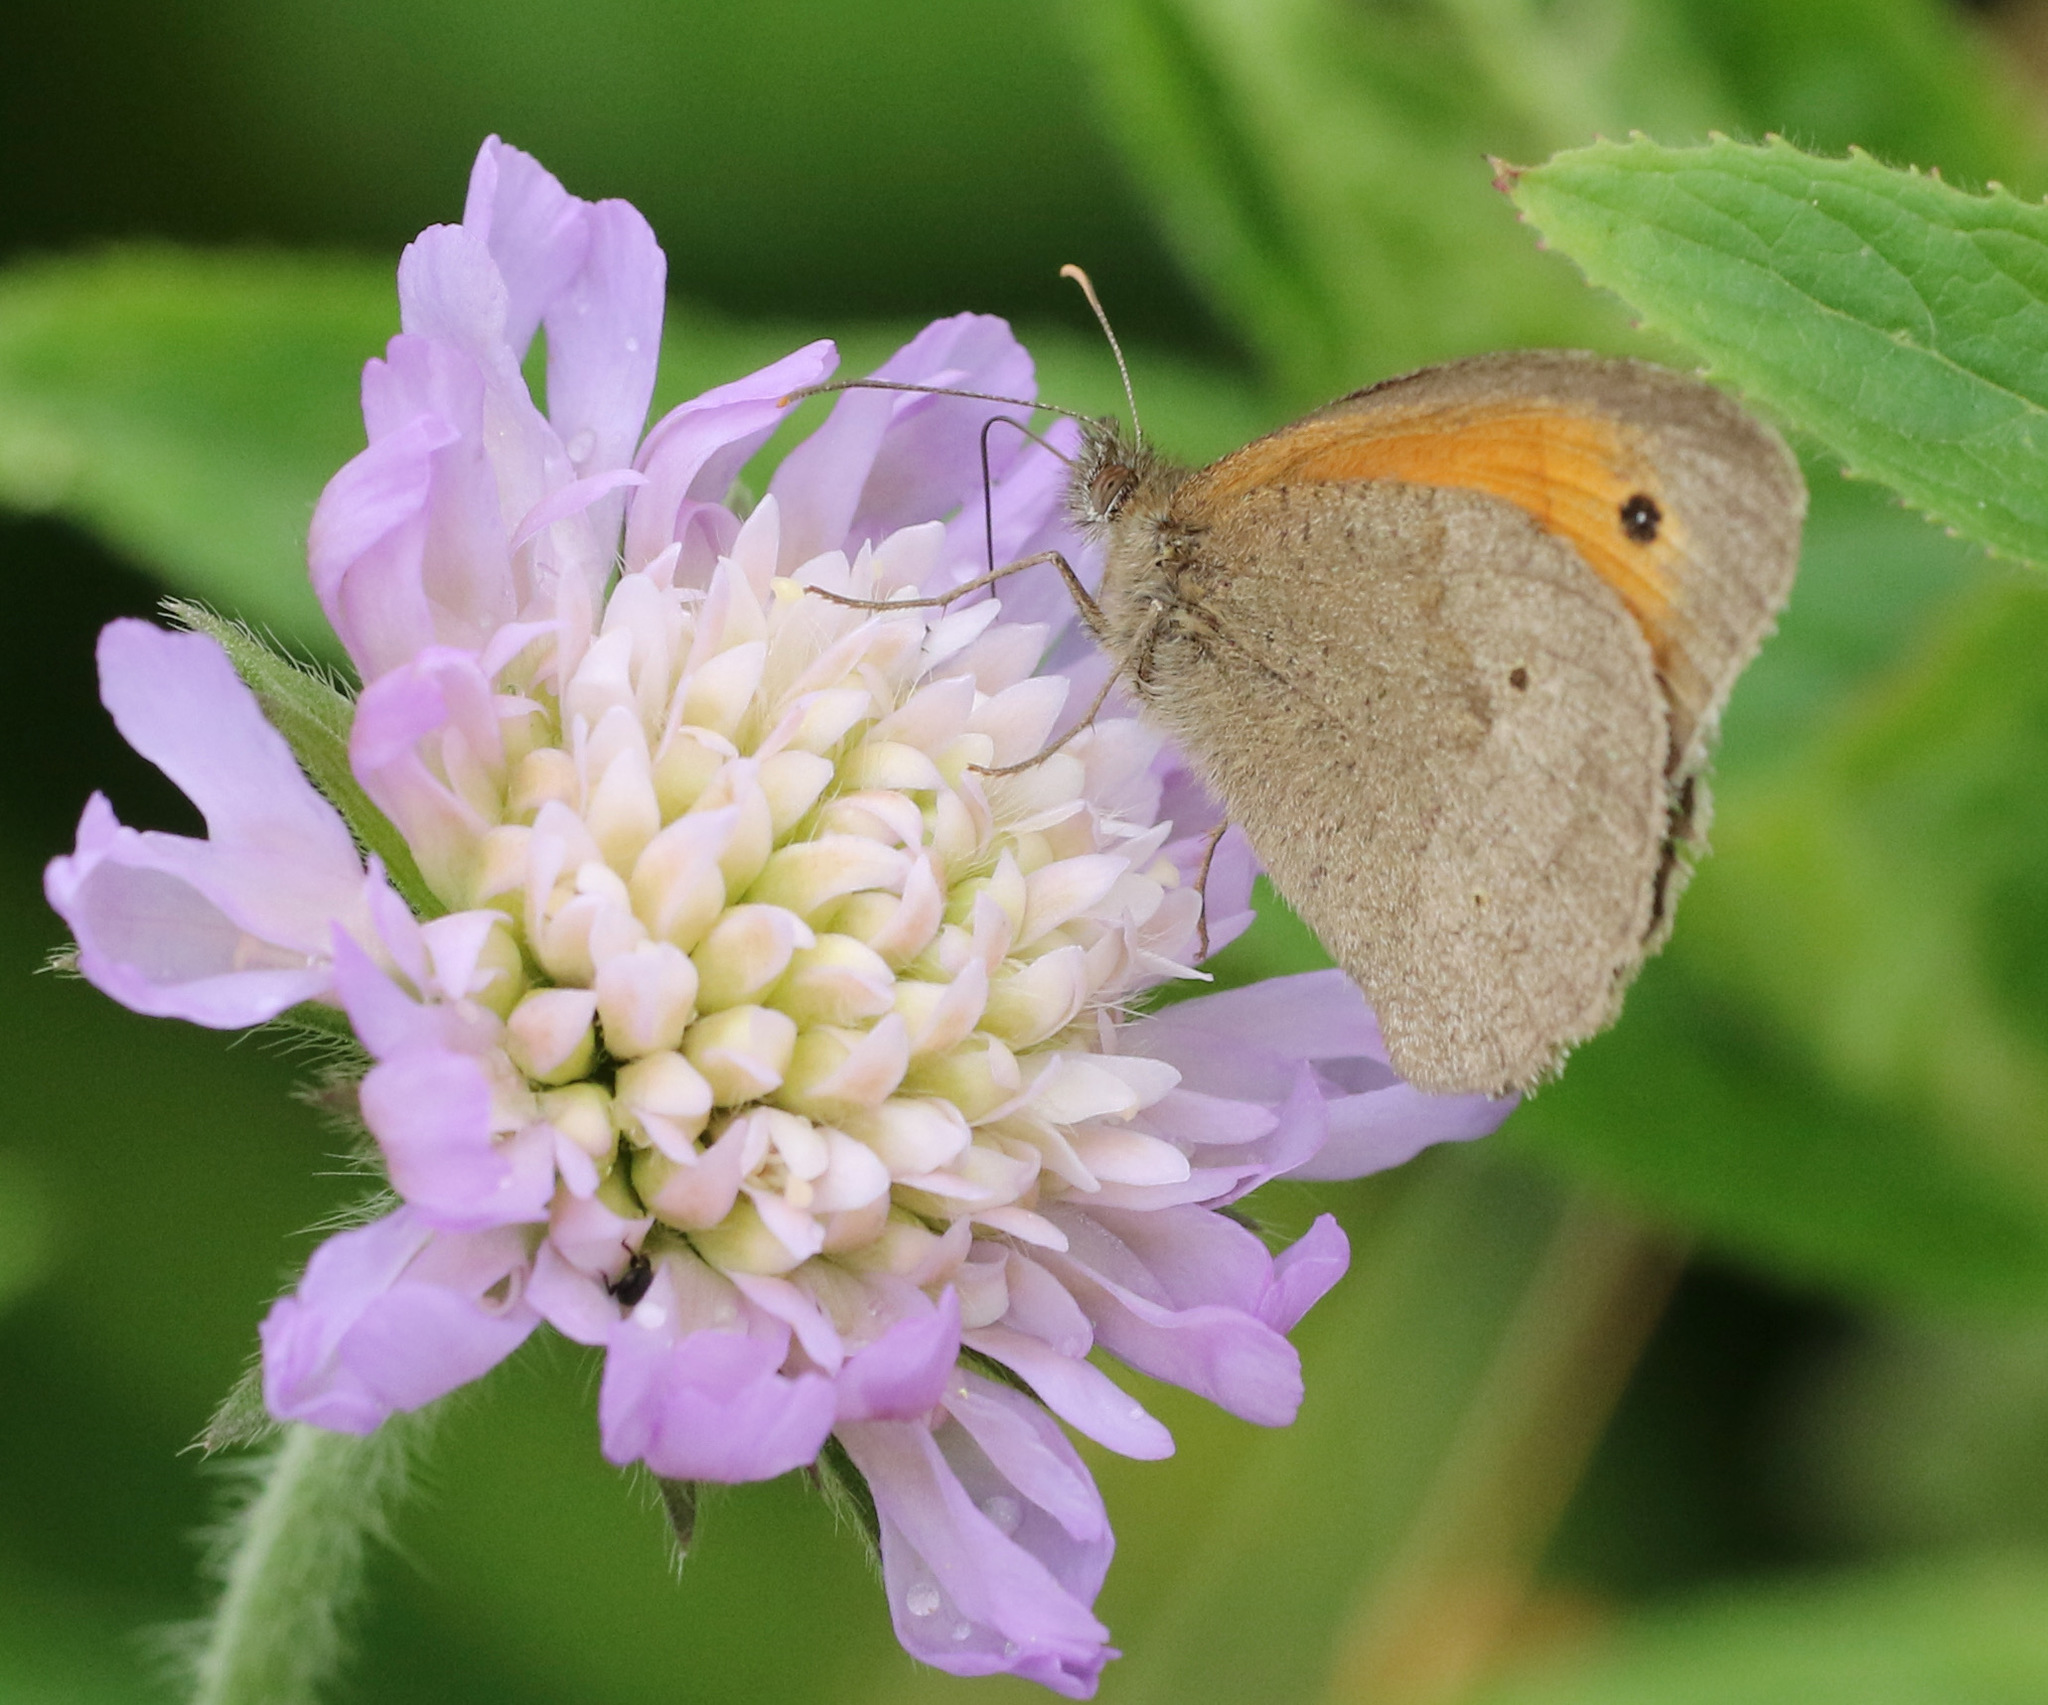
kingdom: Plantae
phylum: Tracheophyta
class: Magnoliopsida
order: Dipsacales
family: Caprifoliaceae
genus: Knautia
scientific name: Knautia arvensis
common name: Field scabiosa
